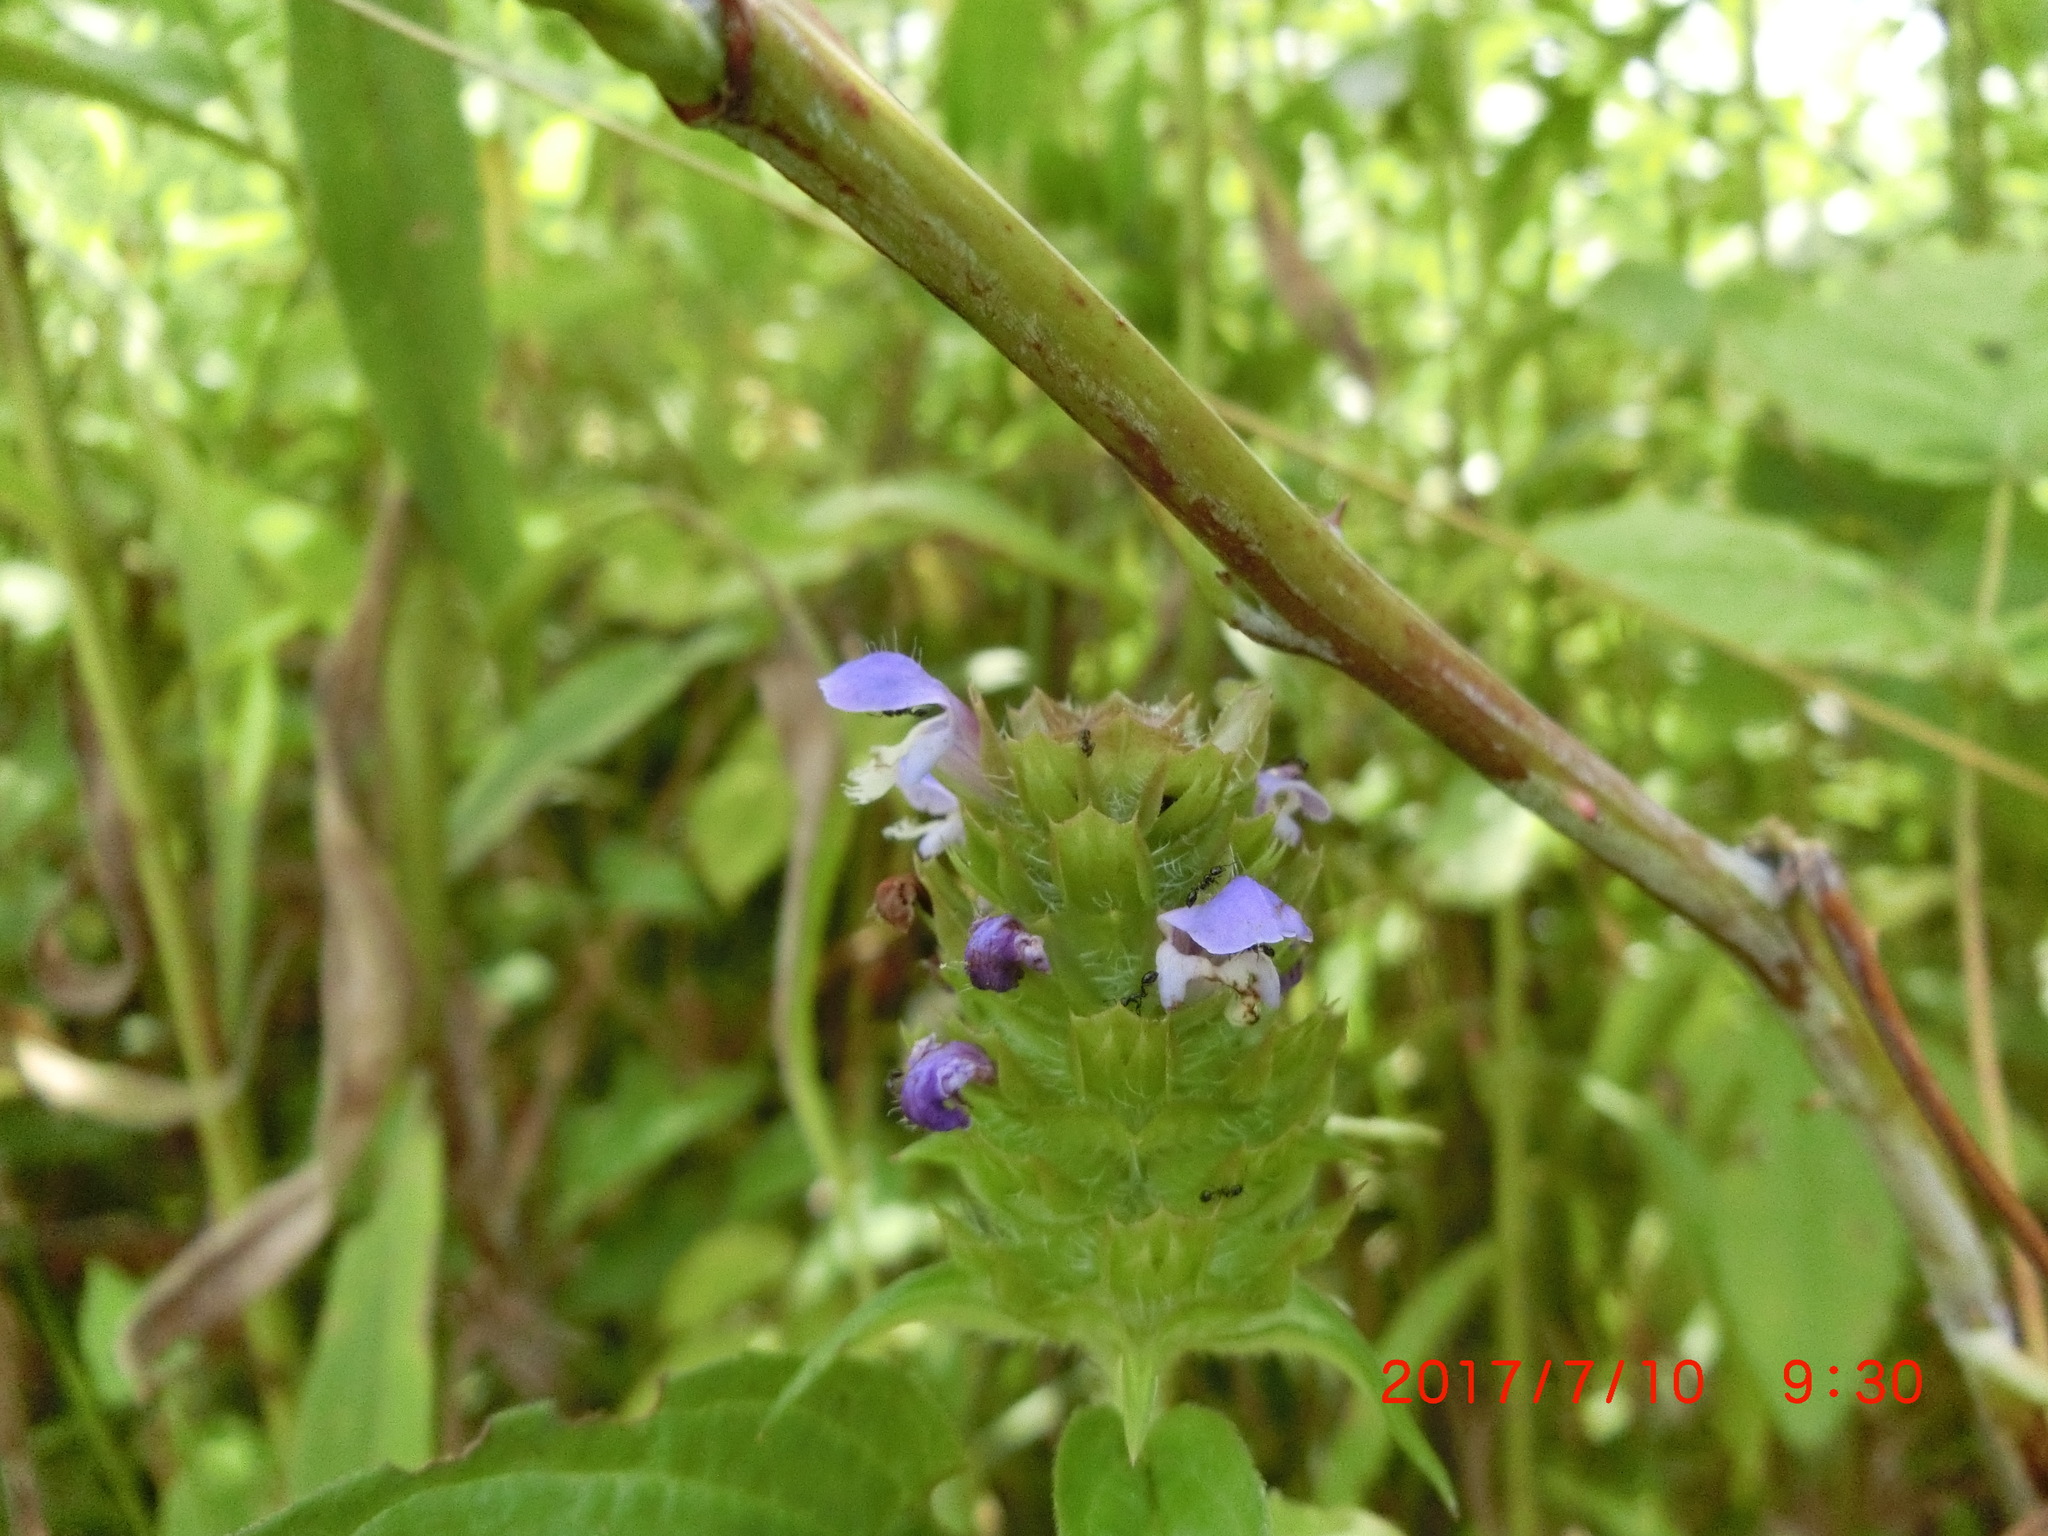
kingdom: Plantae
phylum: Tracheophyta
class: Magnoliopsida
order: Lamiales
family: Lamiaceae
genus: Prunella
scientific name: Prunella vulgaris
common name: Heal-all
